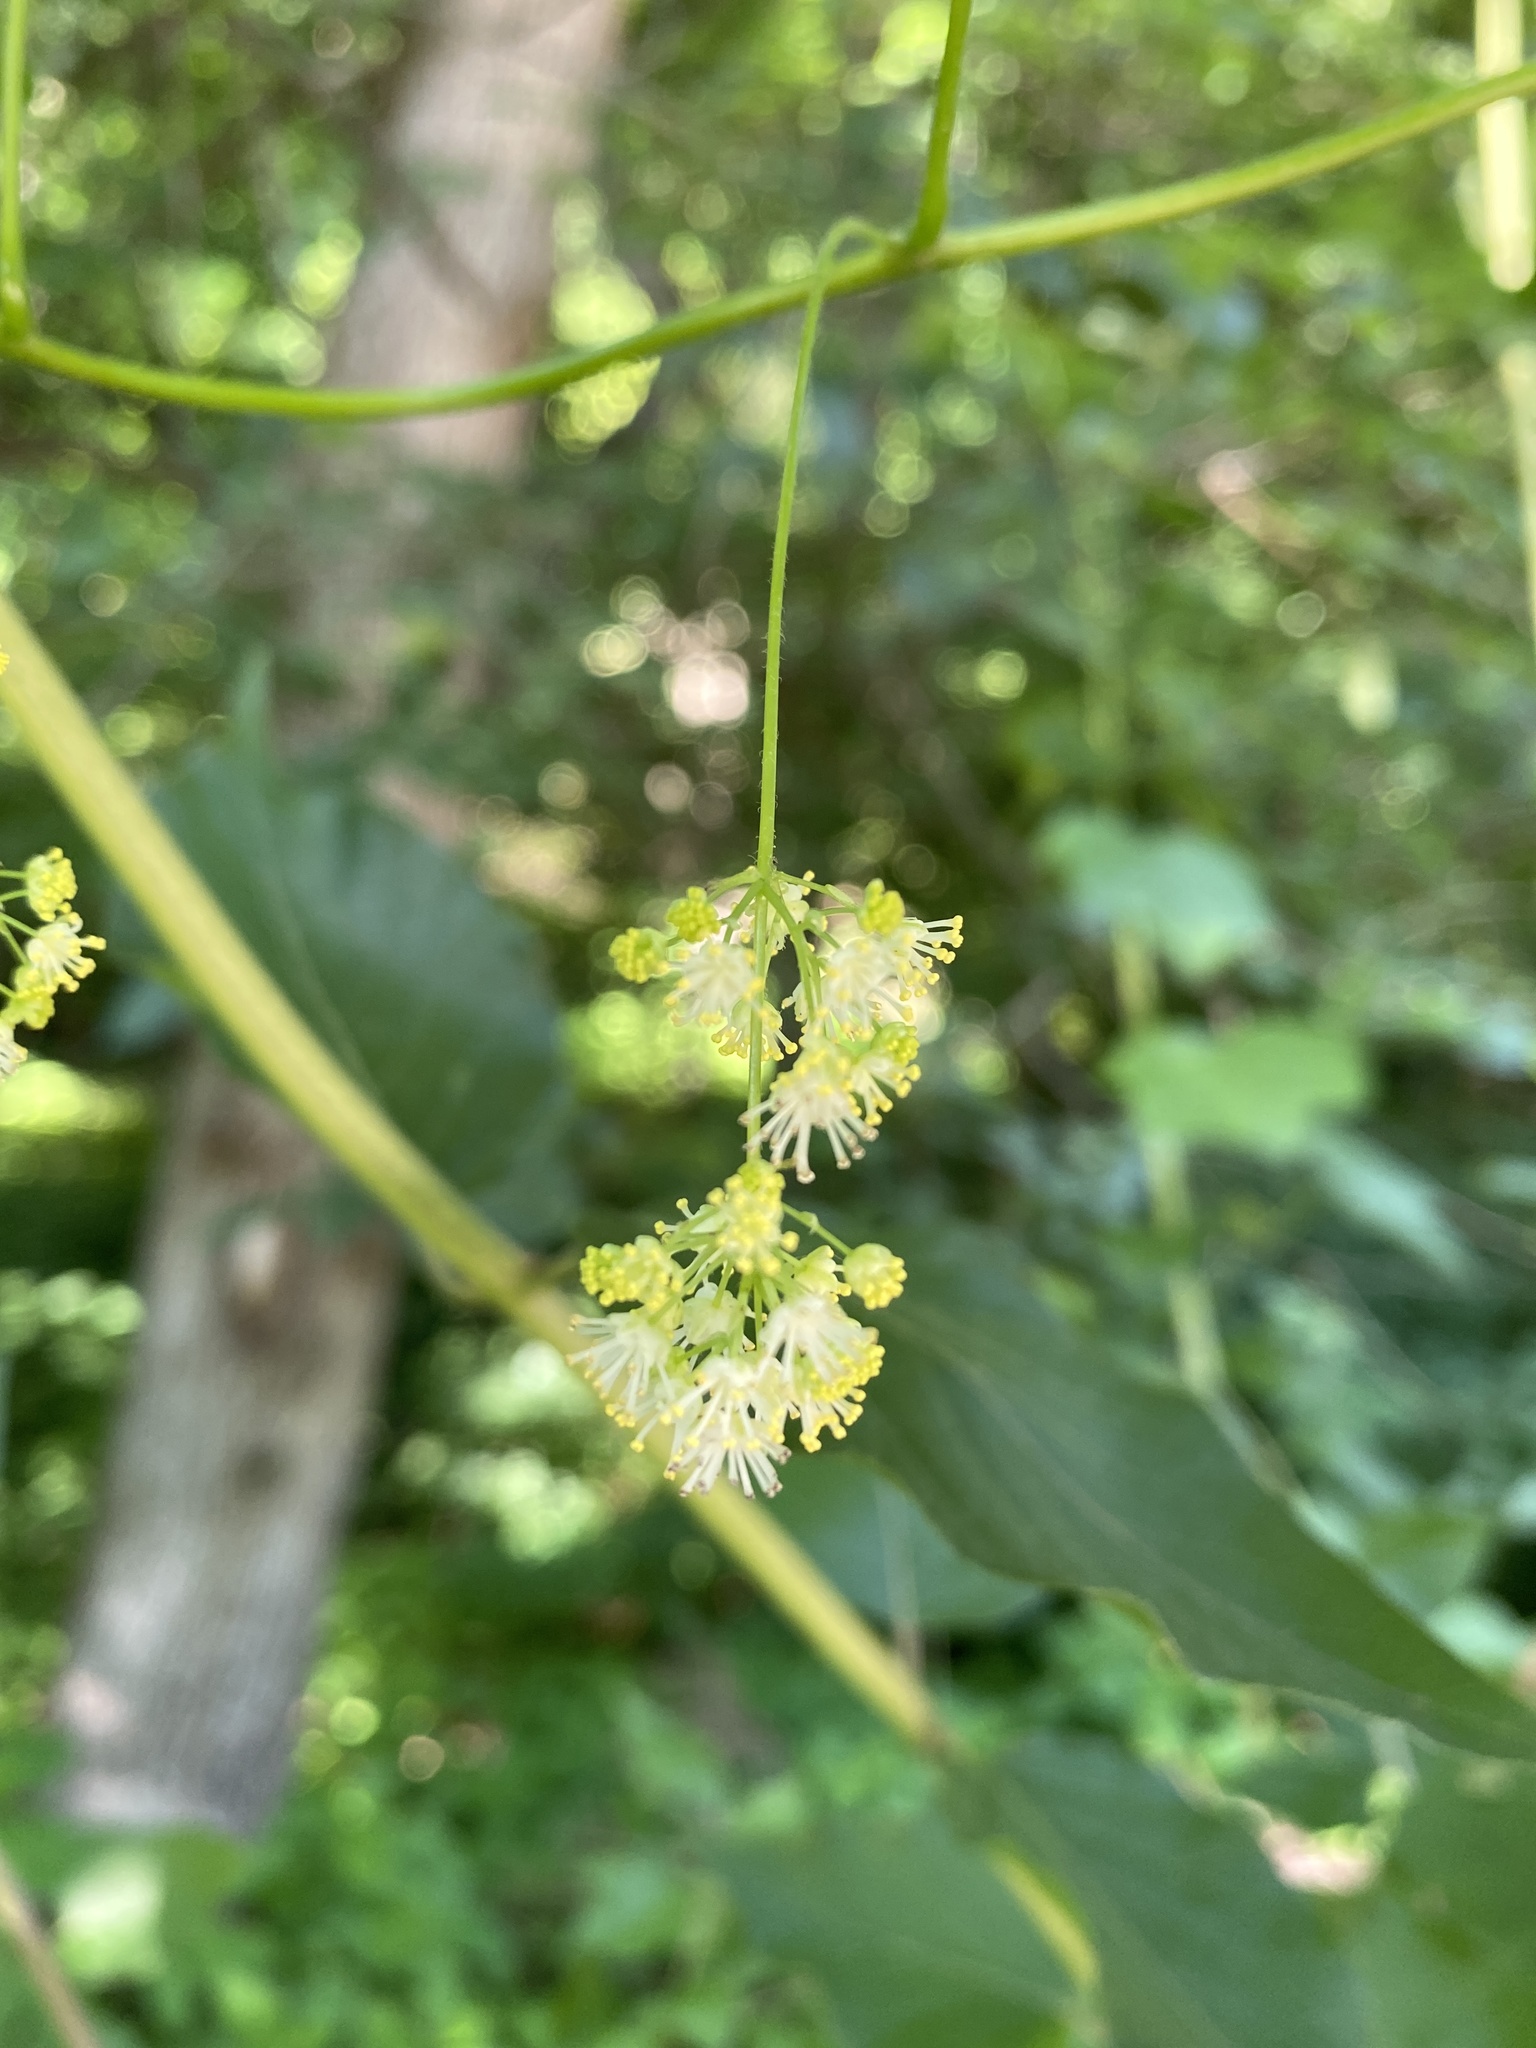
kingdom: Plantae
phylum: Tracheophyta
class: Magnoliopsida
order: Ranunculales
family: Menispermaceae
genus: Menispermum
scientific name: Menispermum canadense
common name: Moonseed
